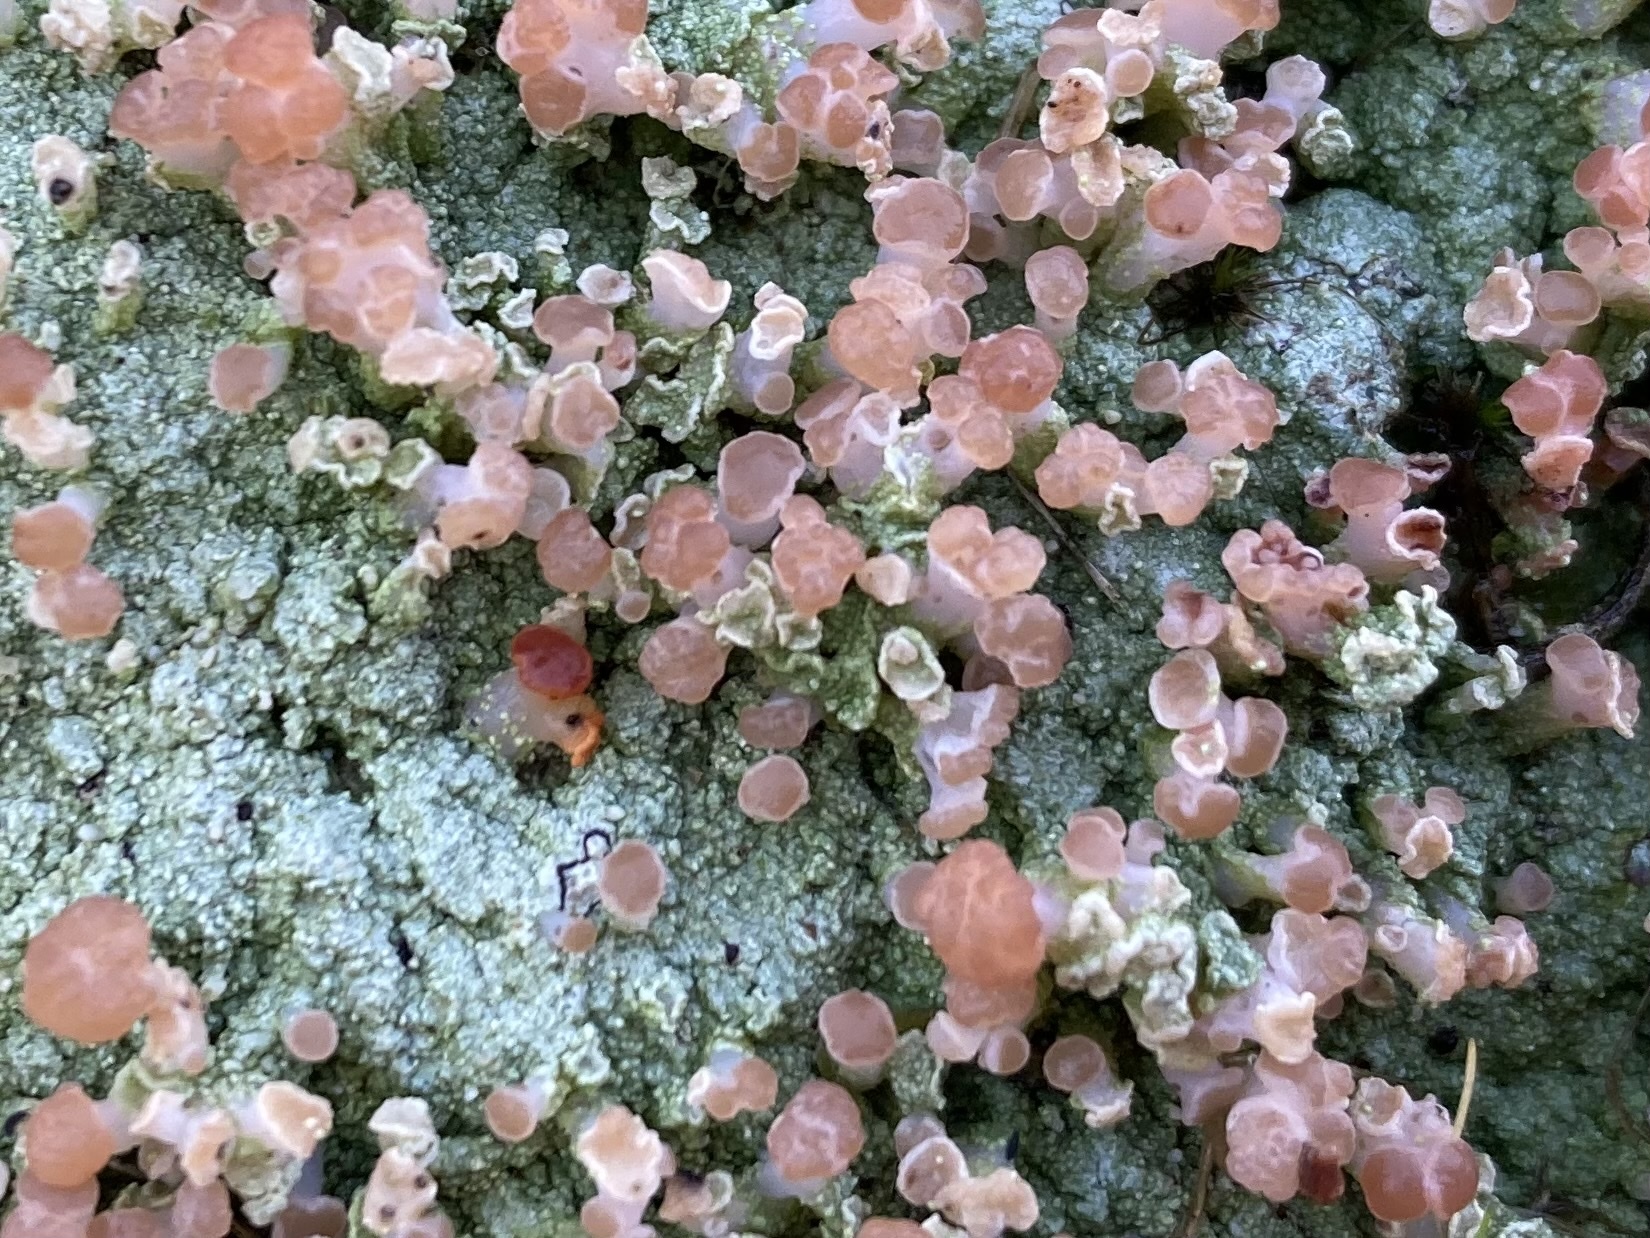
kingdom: Fungi
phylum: Ascomycota
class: Lecanoromycetes
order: Baeomycetales
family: Baeomycetaceae
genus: Baeomyces
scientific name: Baeomyces heteromorphus
